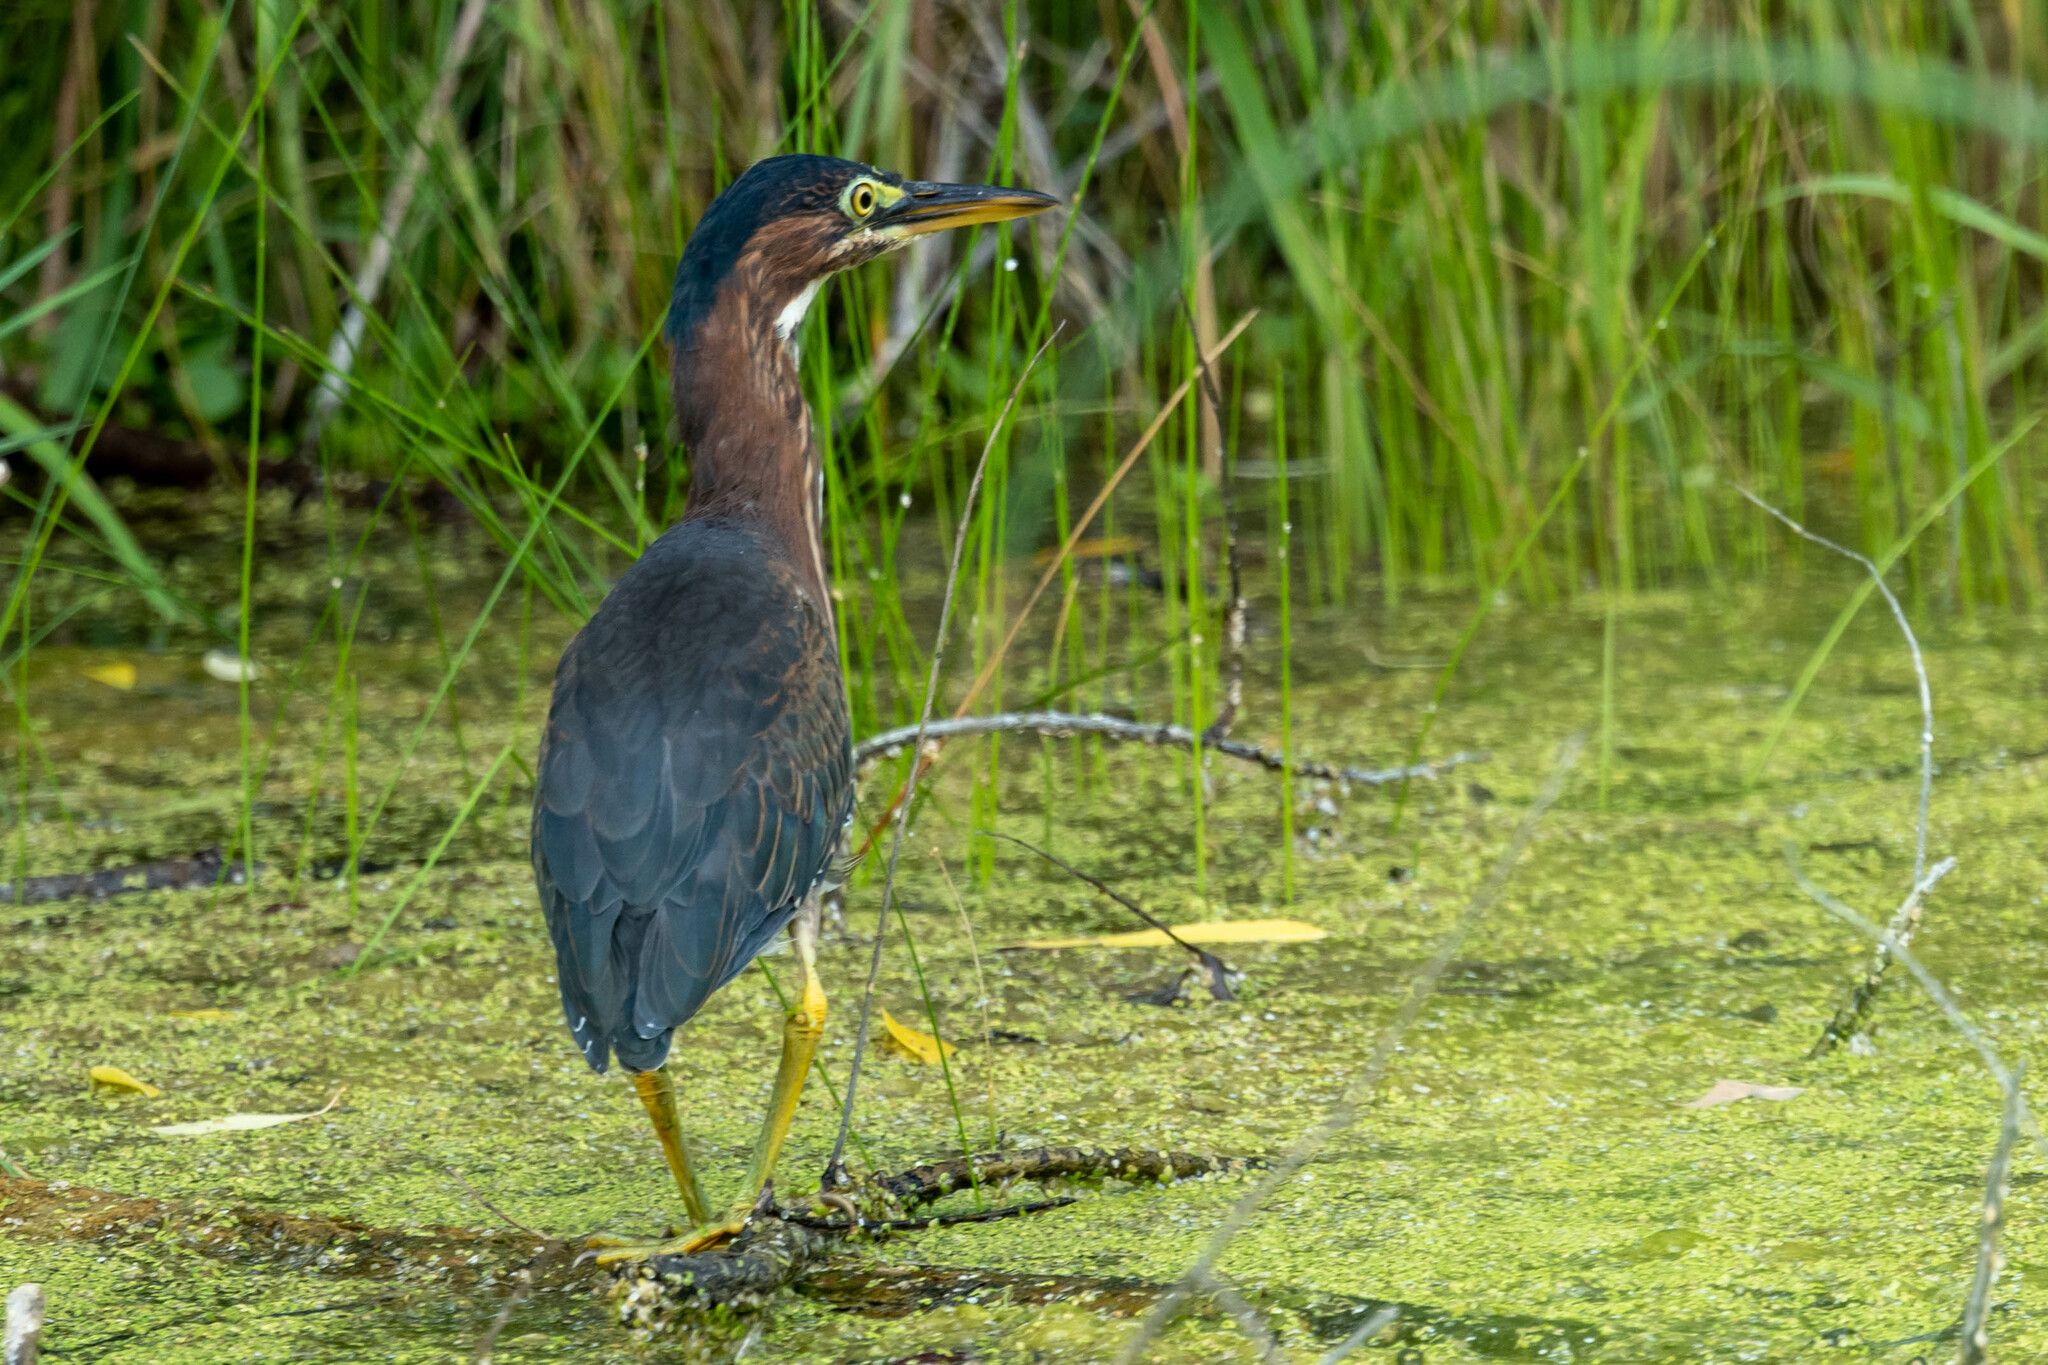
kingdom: Animalia
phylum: Chordata
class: Aves
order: Pelecaniformes
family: Ardeidae
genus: Butorides
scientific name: Butorides virescens
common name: Green heron
